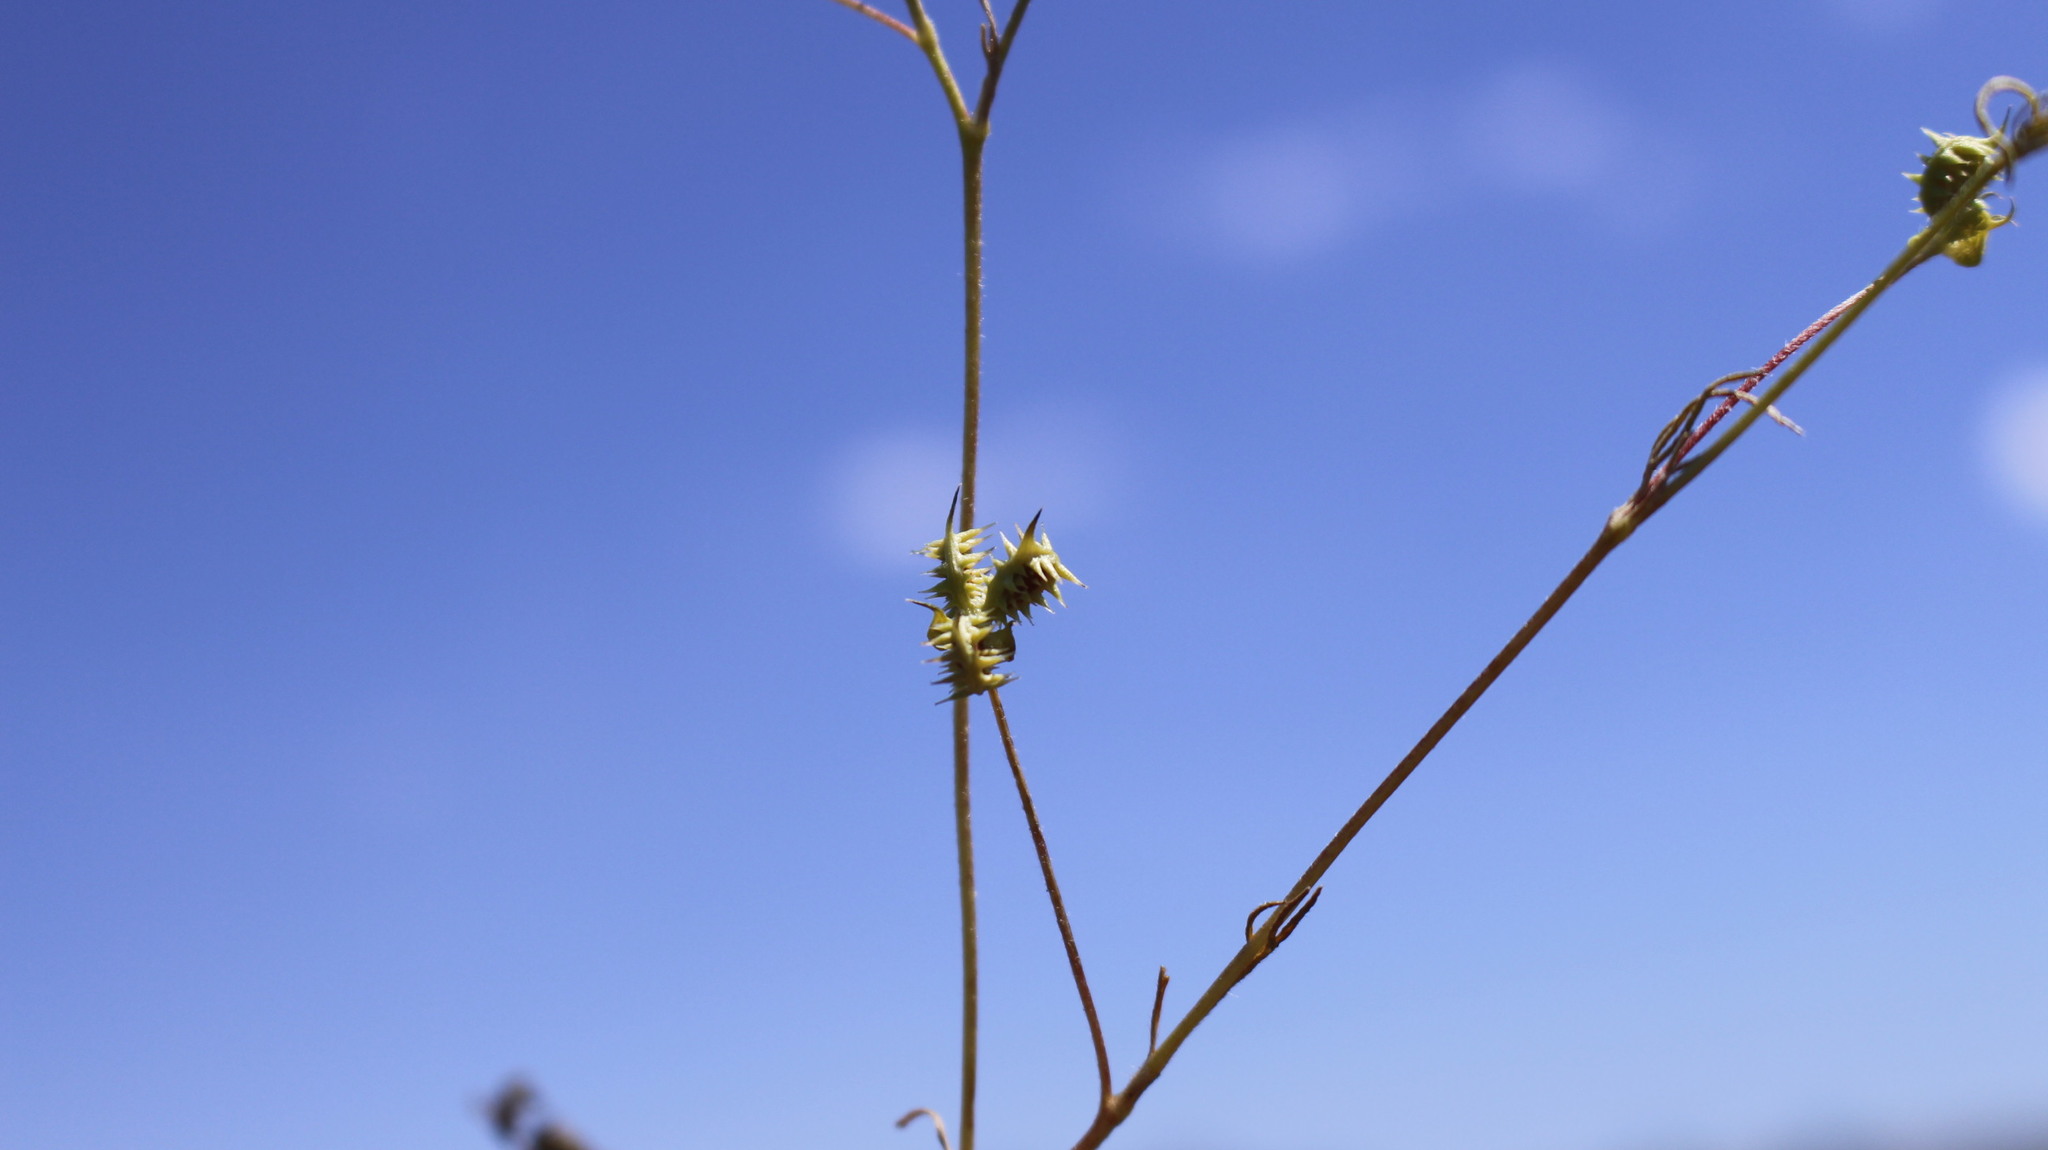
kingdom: Plantae
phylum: Tracheophyta
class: Magnoliopsida
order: Ranunculales
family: Ranunculaceae
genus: Ranunculus
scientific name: Ranunculus arvensis
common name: Corn buttercup
